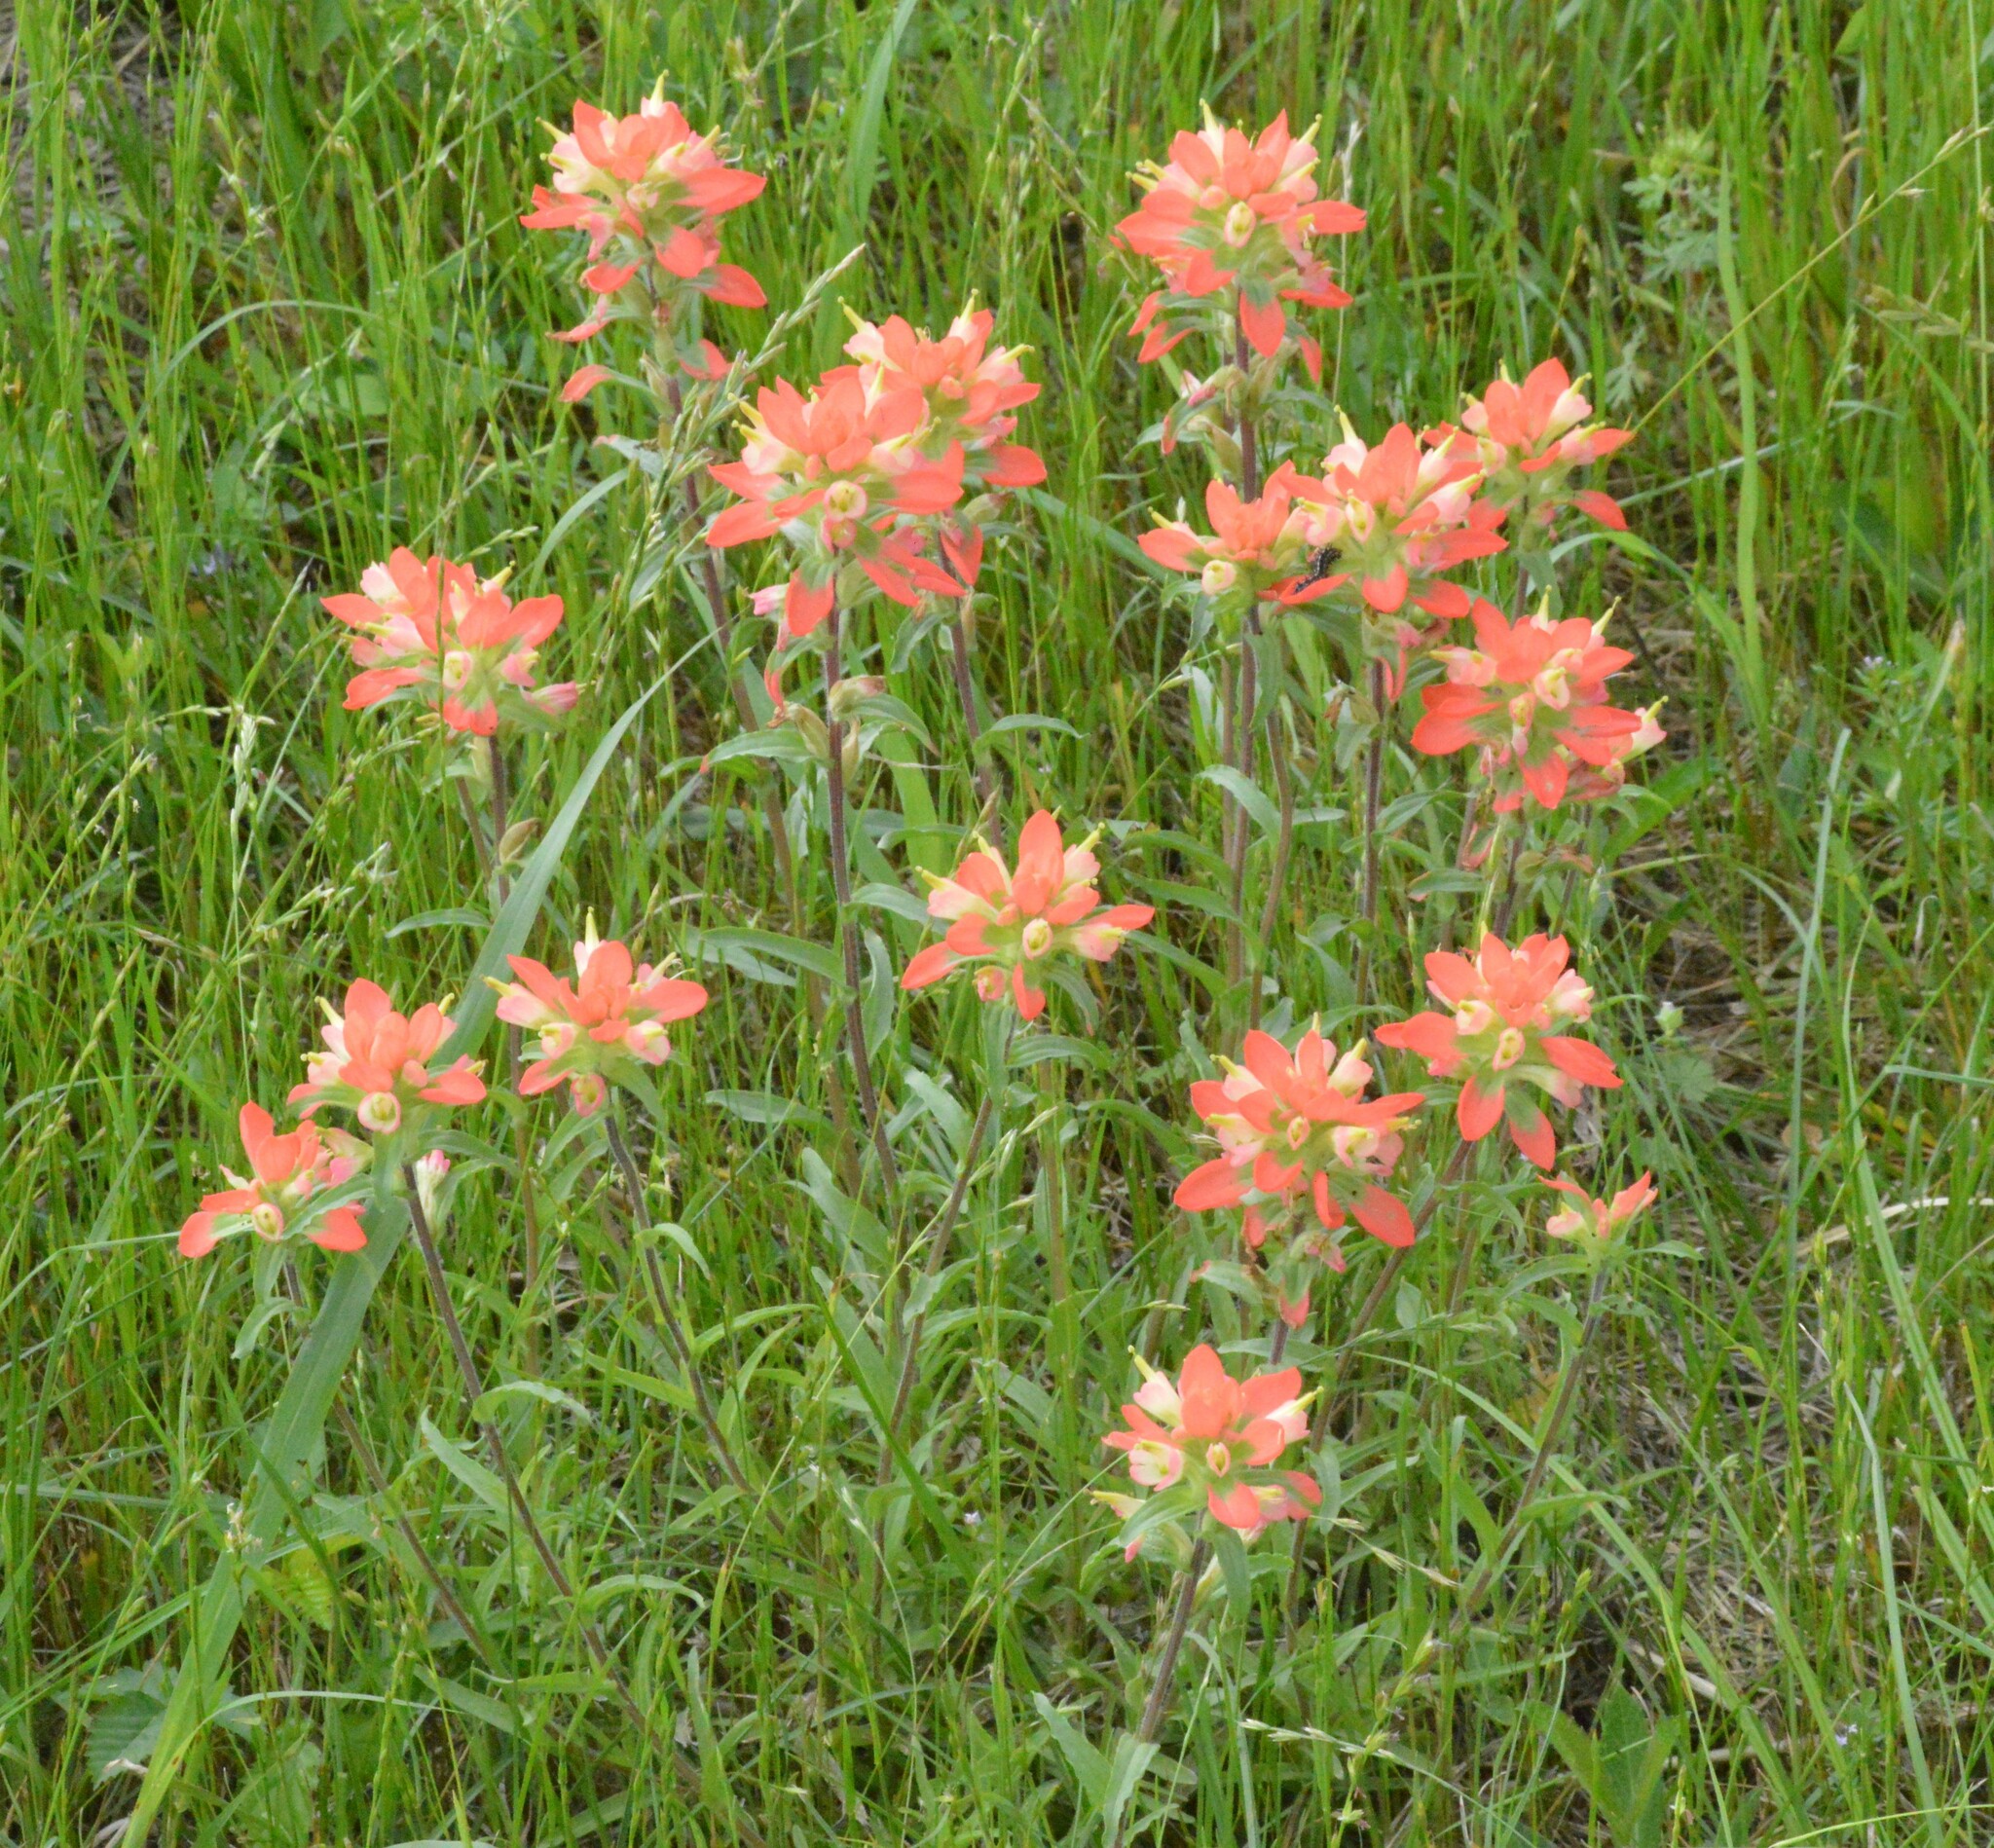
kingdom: Plantae
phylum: Tracheophyta
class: Magnoliopsida
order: Lamiales
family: Orobanchaceae
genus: Castilleja
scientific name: Castilleja indivisa
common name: Texas paintbrush
